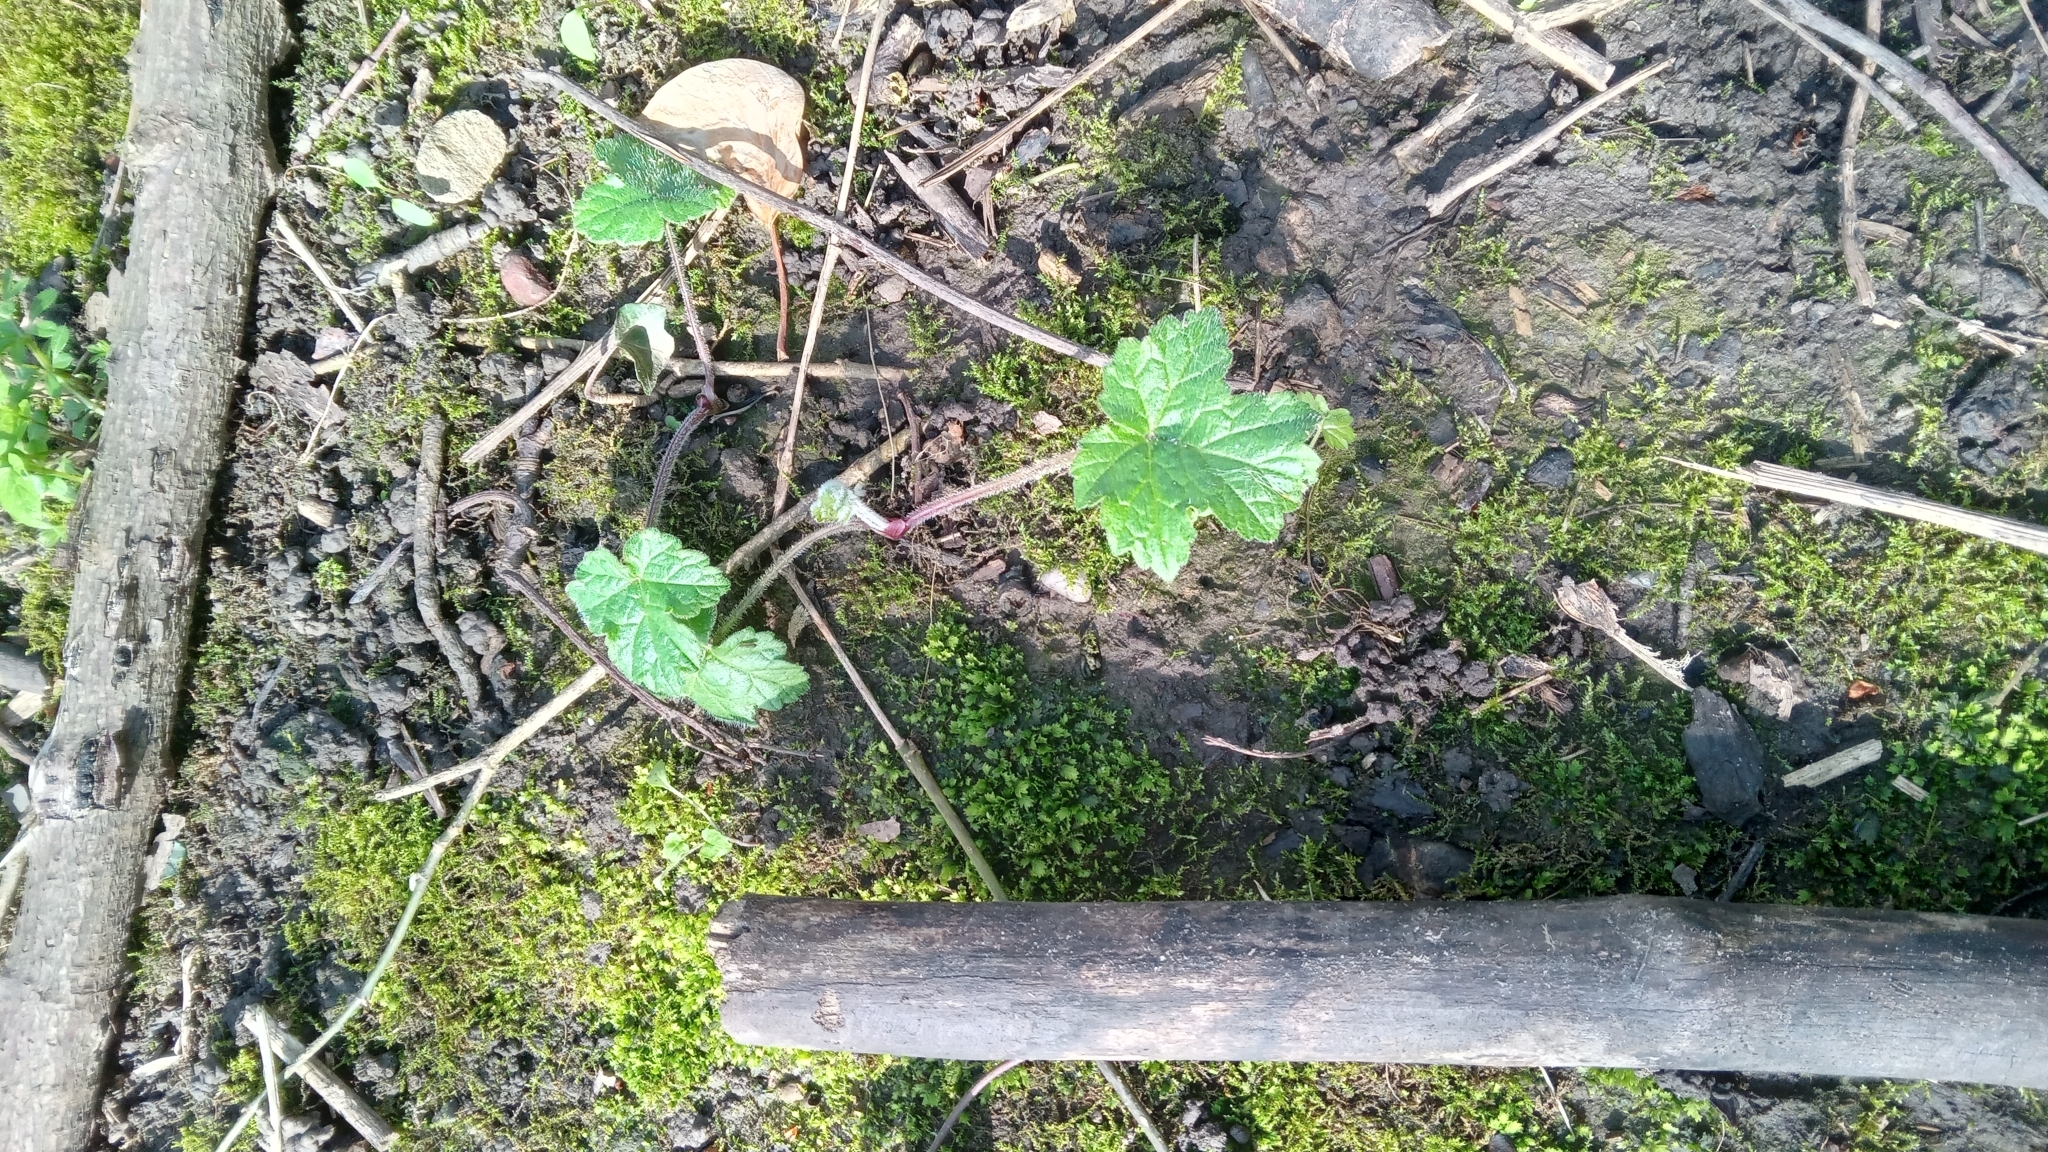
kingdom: Plantae
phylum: Tracheophyta
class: Magnoliopsida
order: Apiales
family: Apiaceae
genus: Heracleum
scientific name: Heracleum sphondylium
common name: Hogweed
